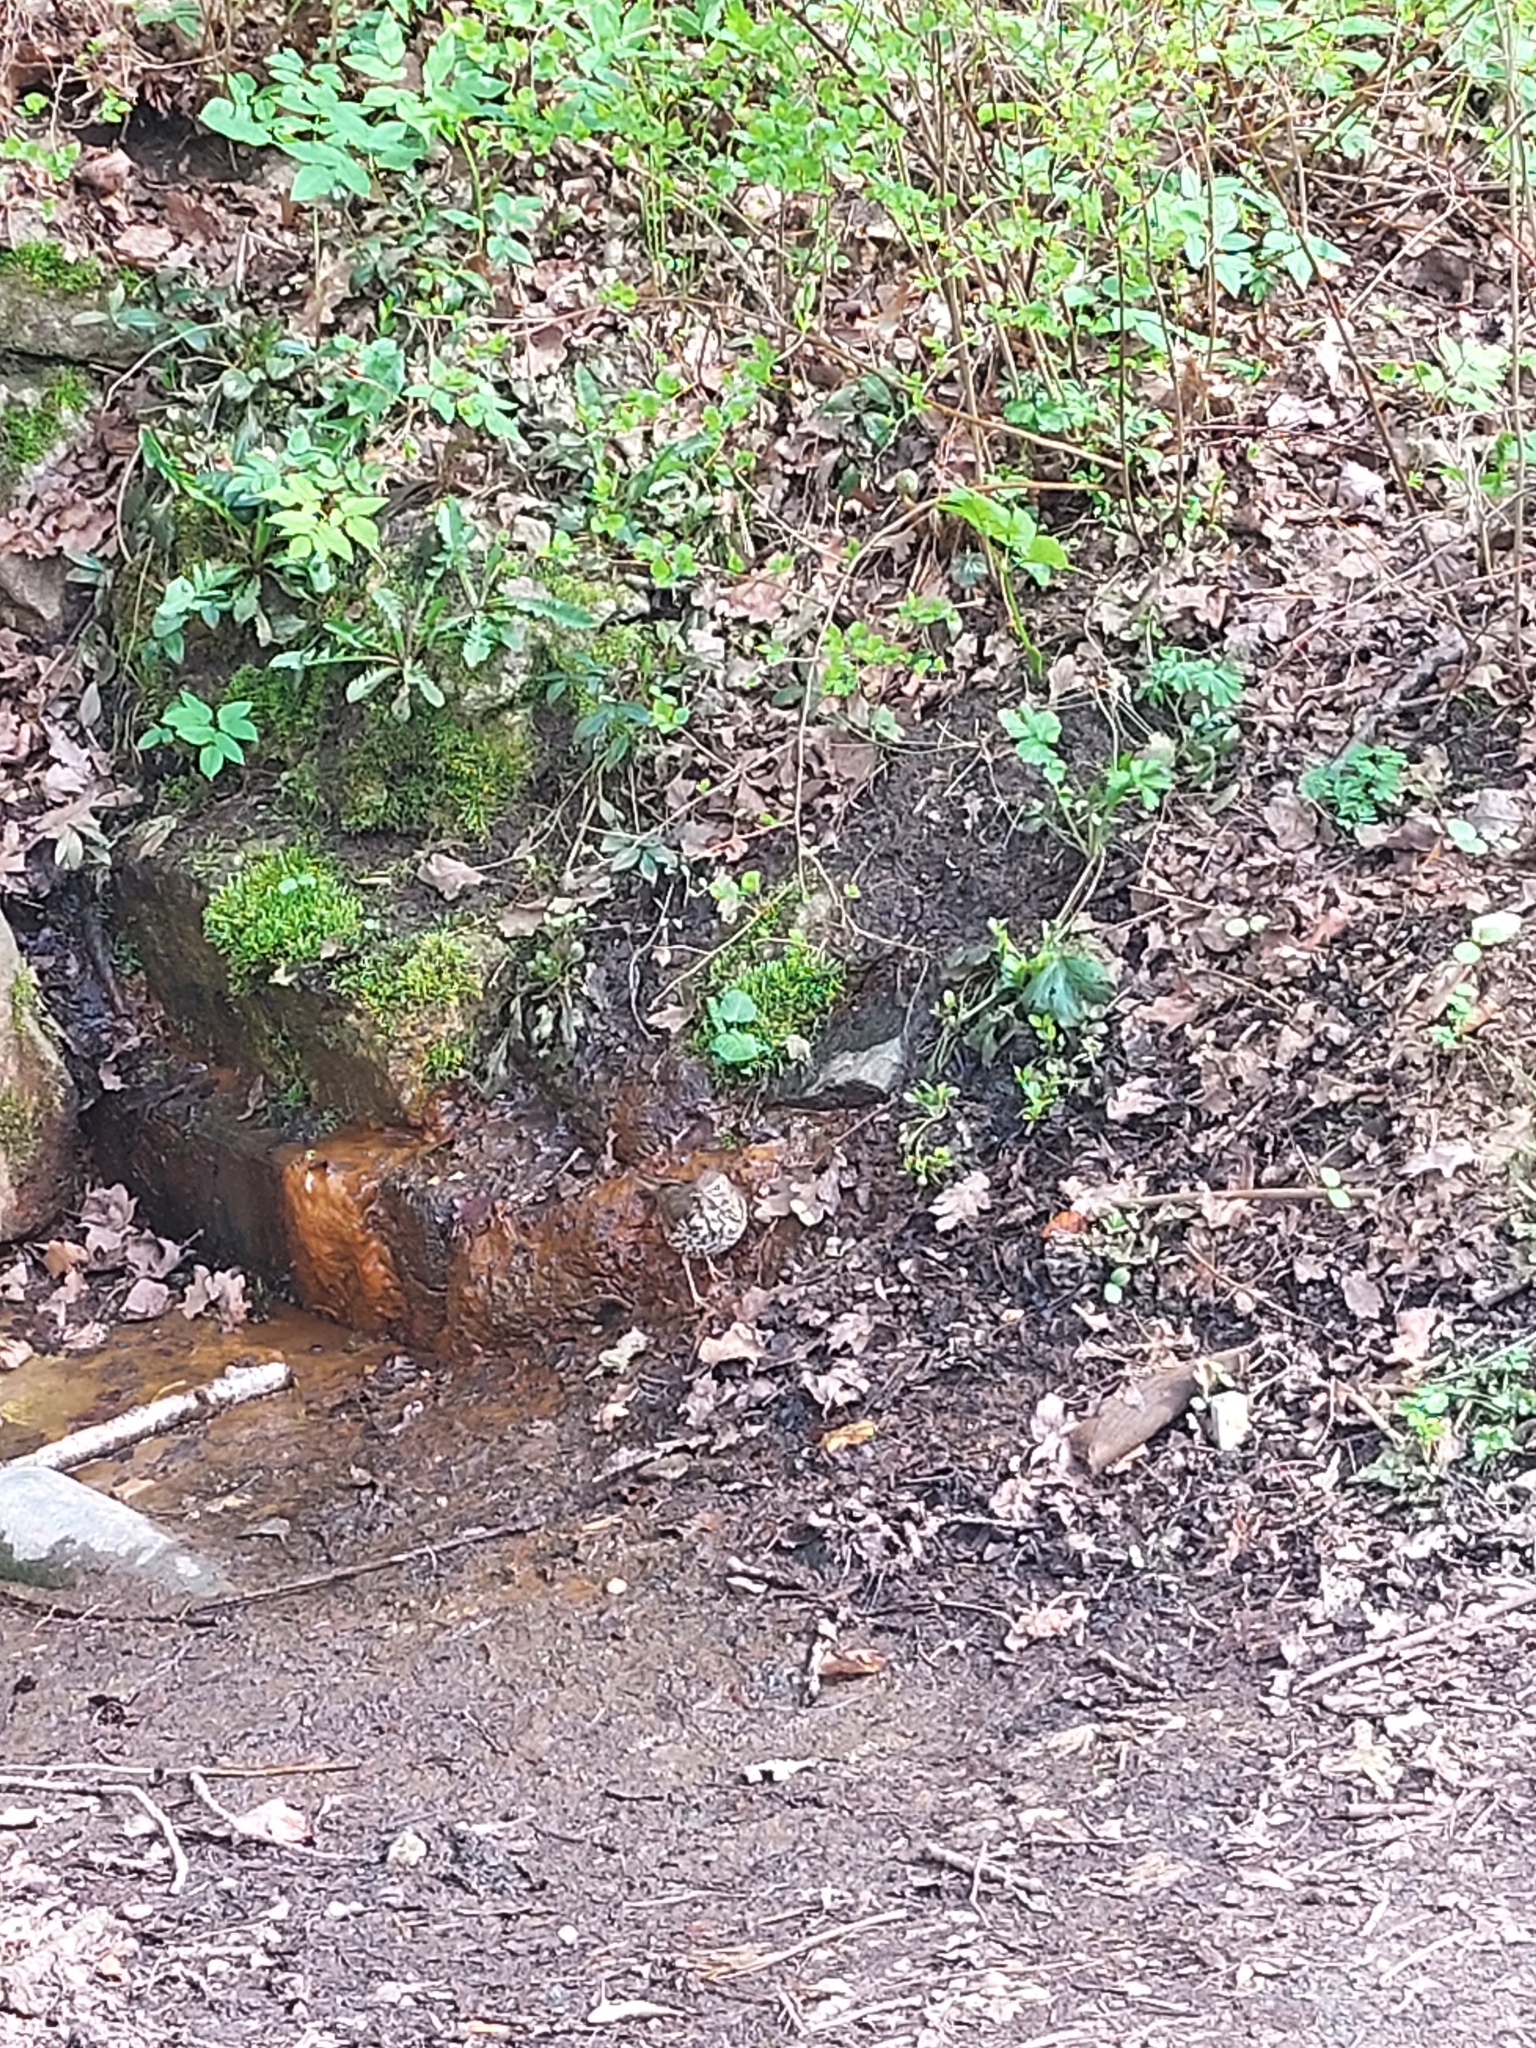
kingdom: Animalia
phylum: Chordata
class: Aves
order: Passeriformes
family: Turdidae
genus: Turdus
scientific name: Turdus philomelos
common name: Song thrush
